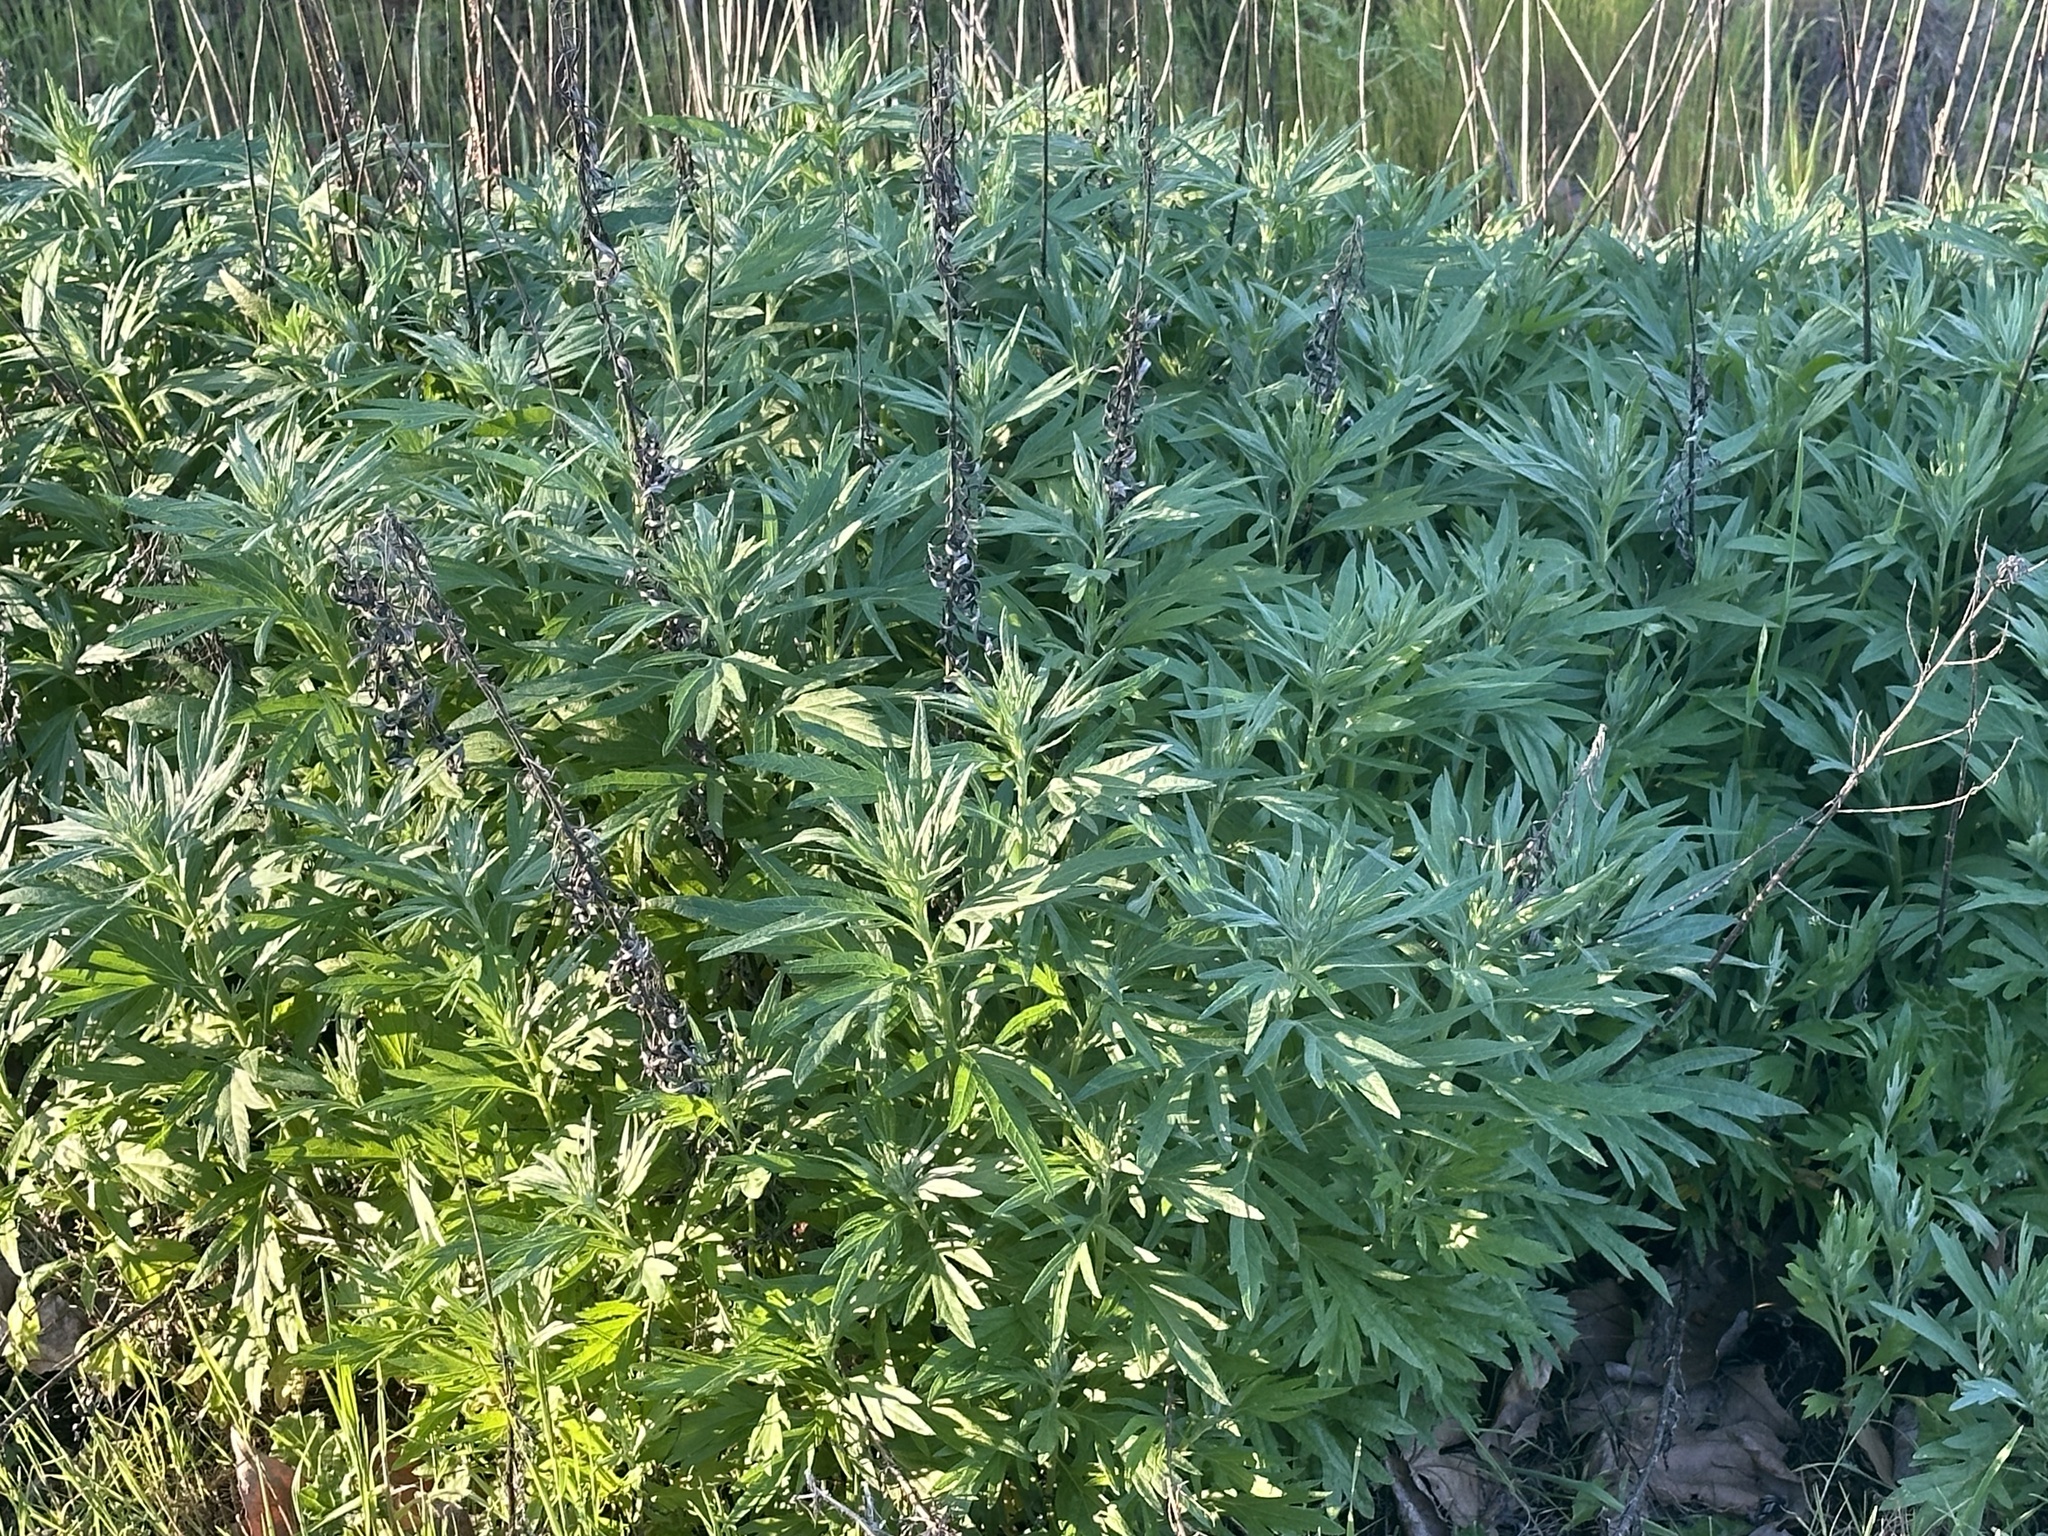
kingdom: Plantae
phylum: Tracheophyta
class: Magnoliopsida
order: Asterales
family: Asteraceae
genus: Artemisia
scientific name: Artemisia douglasiana
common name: Northwest mugwort
